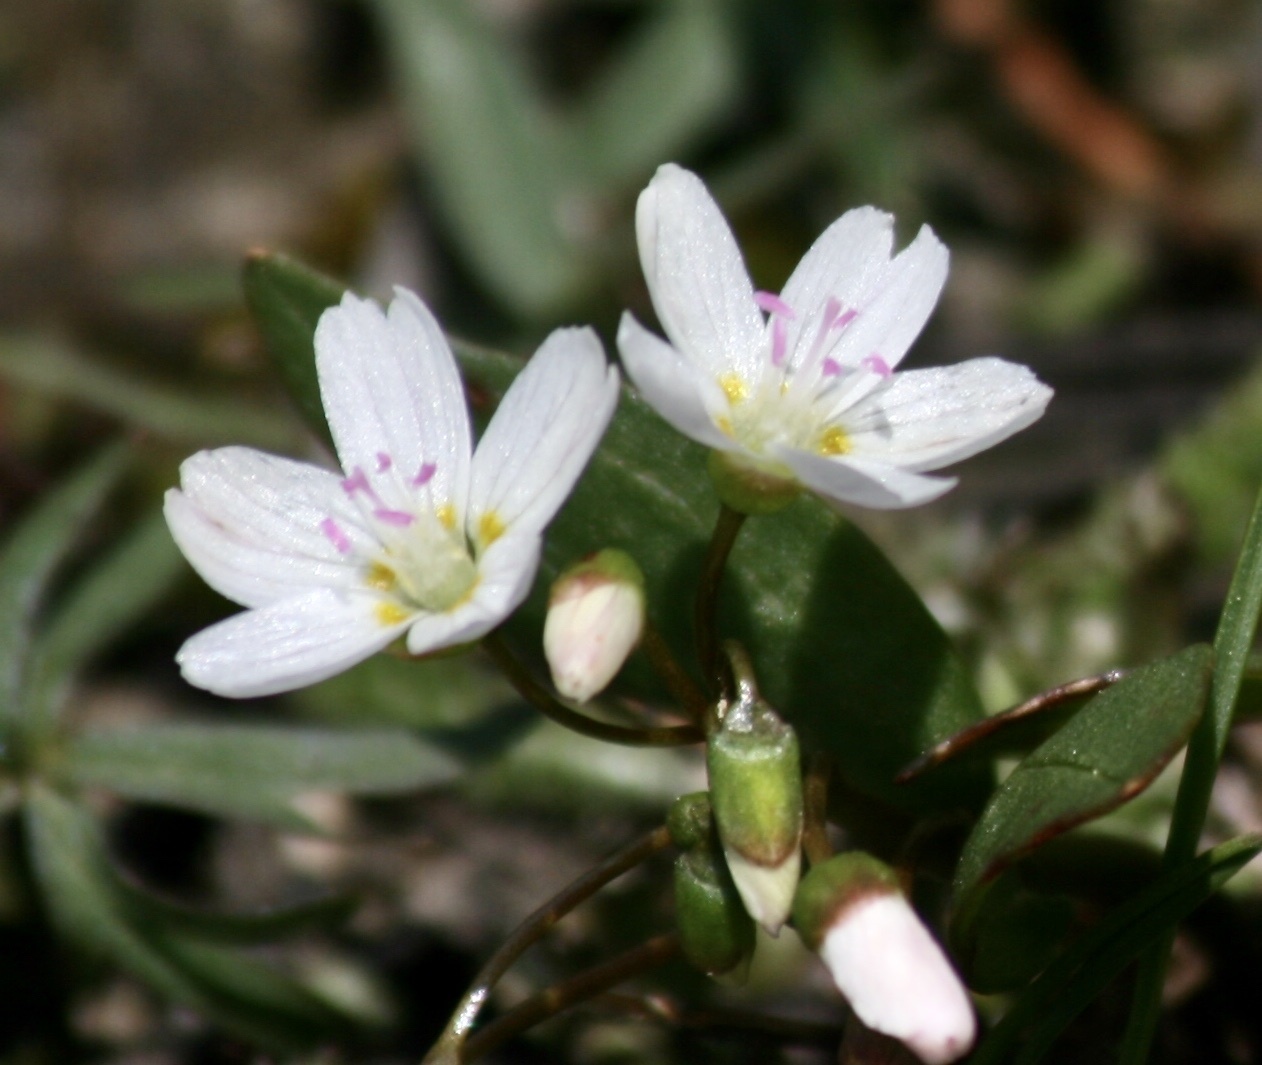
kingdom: Plantae
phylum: Tracheophyta
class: Magnoliopsida
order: Caryophyllales
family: Montiaceae
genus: Claytonia
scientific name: Claytonia lanceolata
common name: Western spring-beauty
